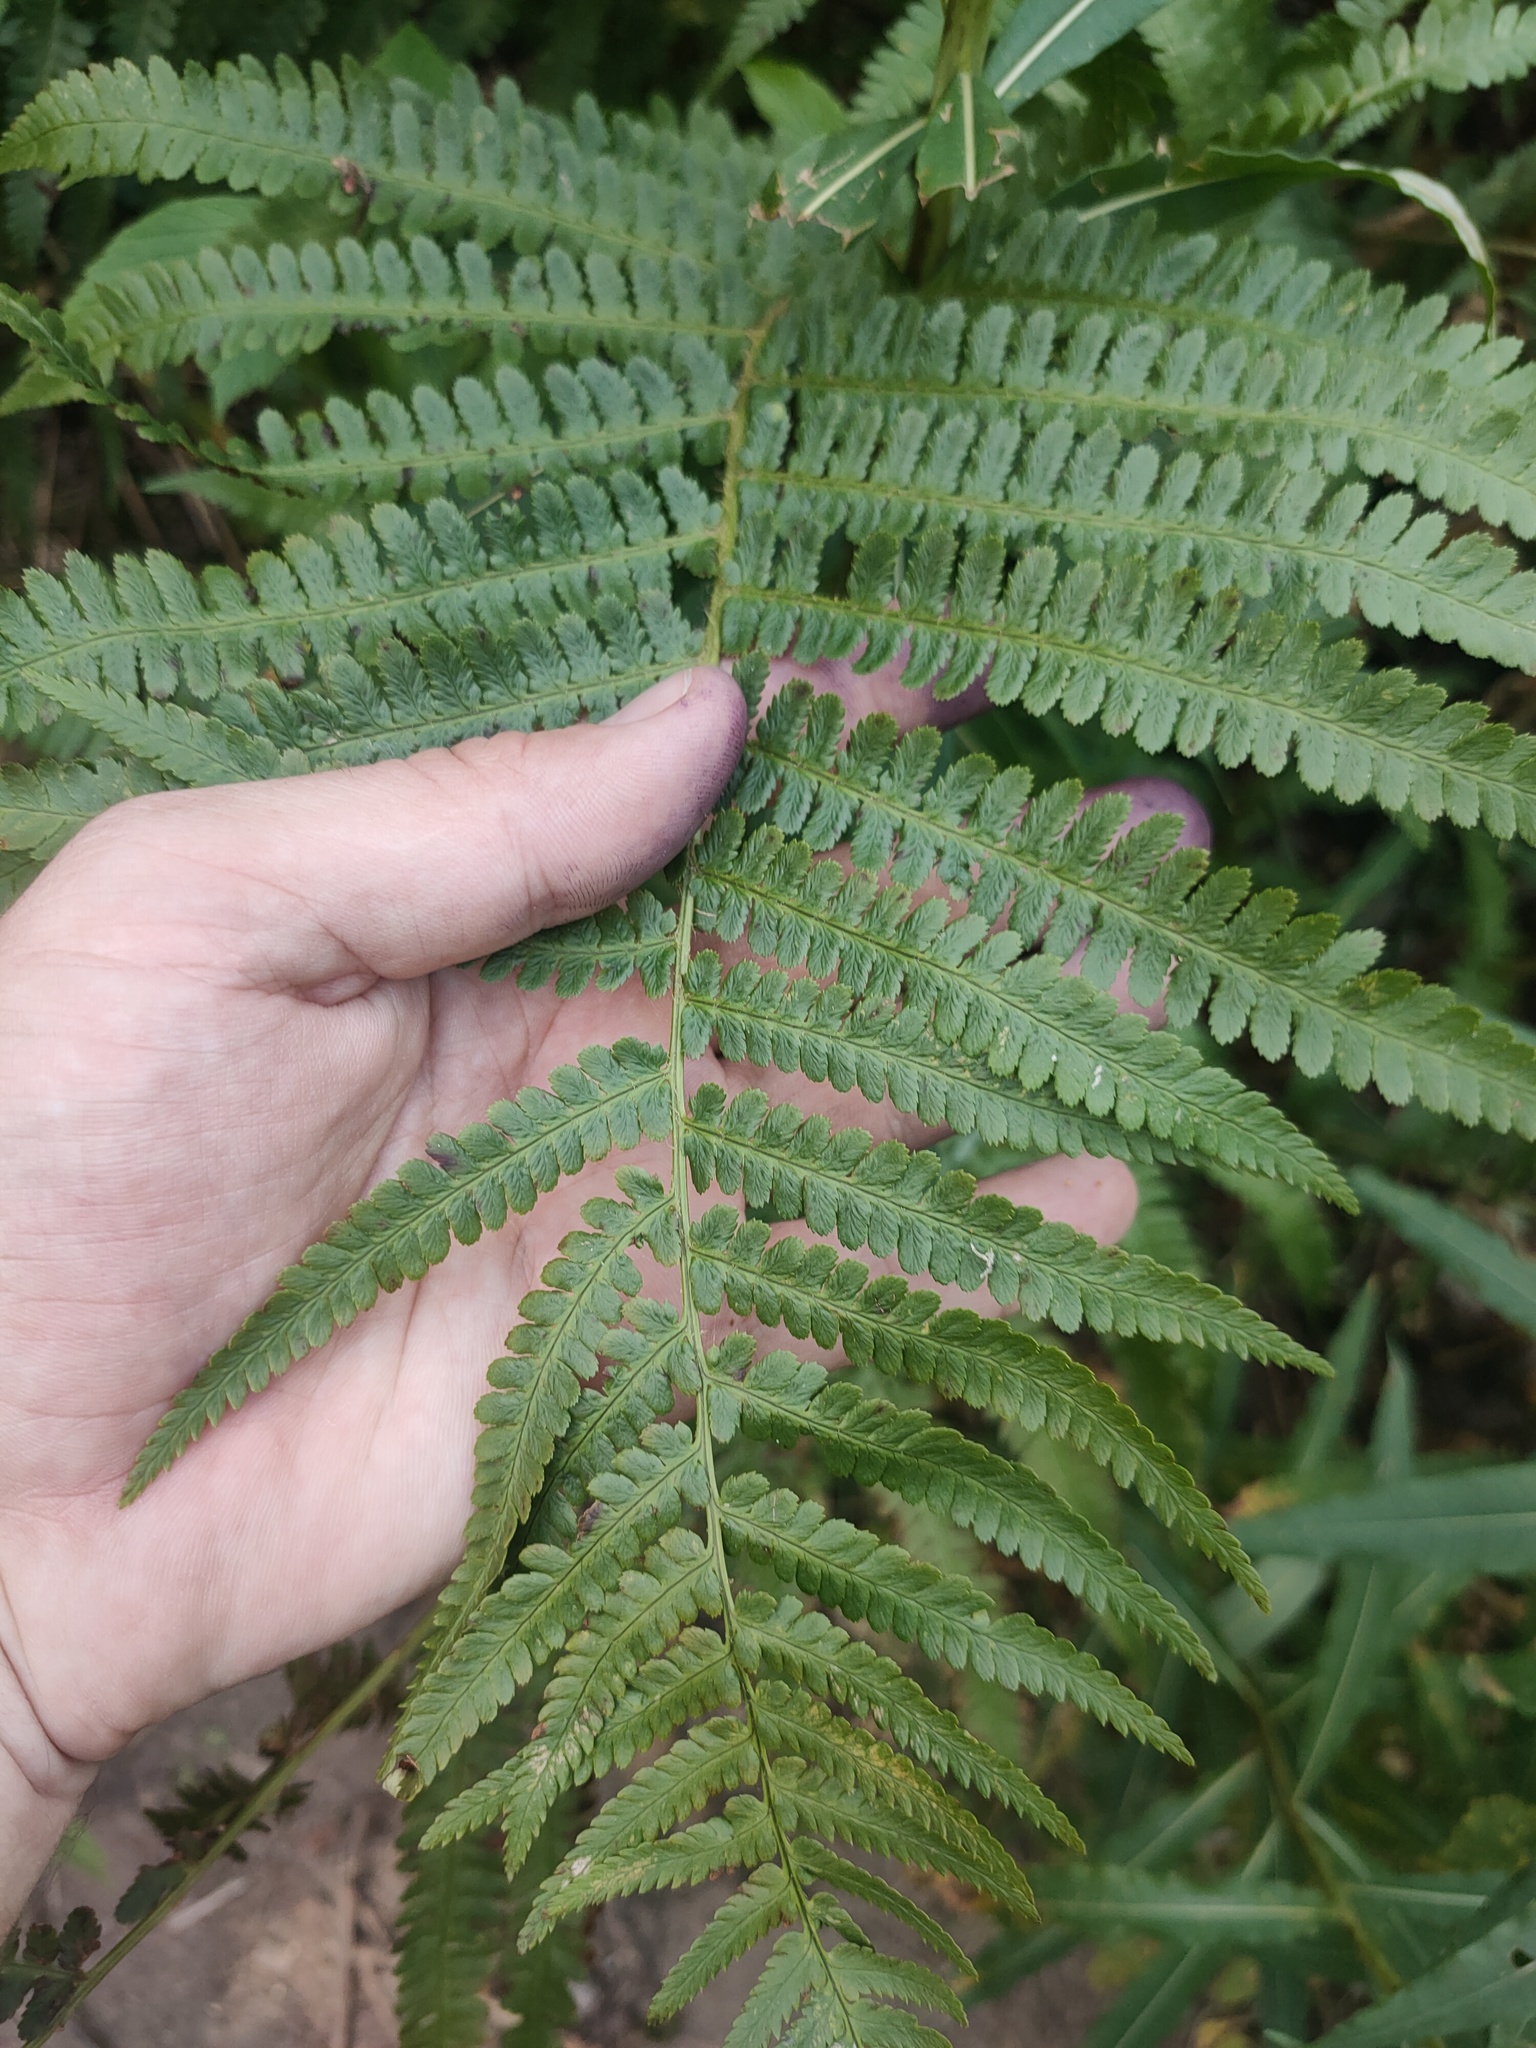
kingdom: Plantae
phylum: Tracheophyta
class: Polypodiopsida
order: Polypodiales
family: Dryopteridaceae
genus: Dryopteris
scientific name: Dryopteris filix-mas
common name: Male fern
